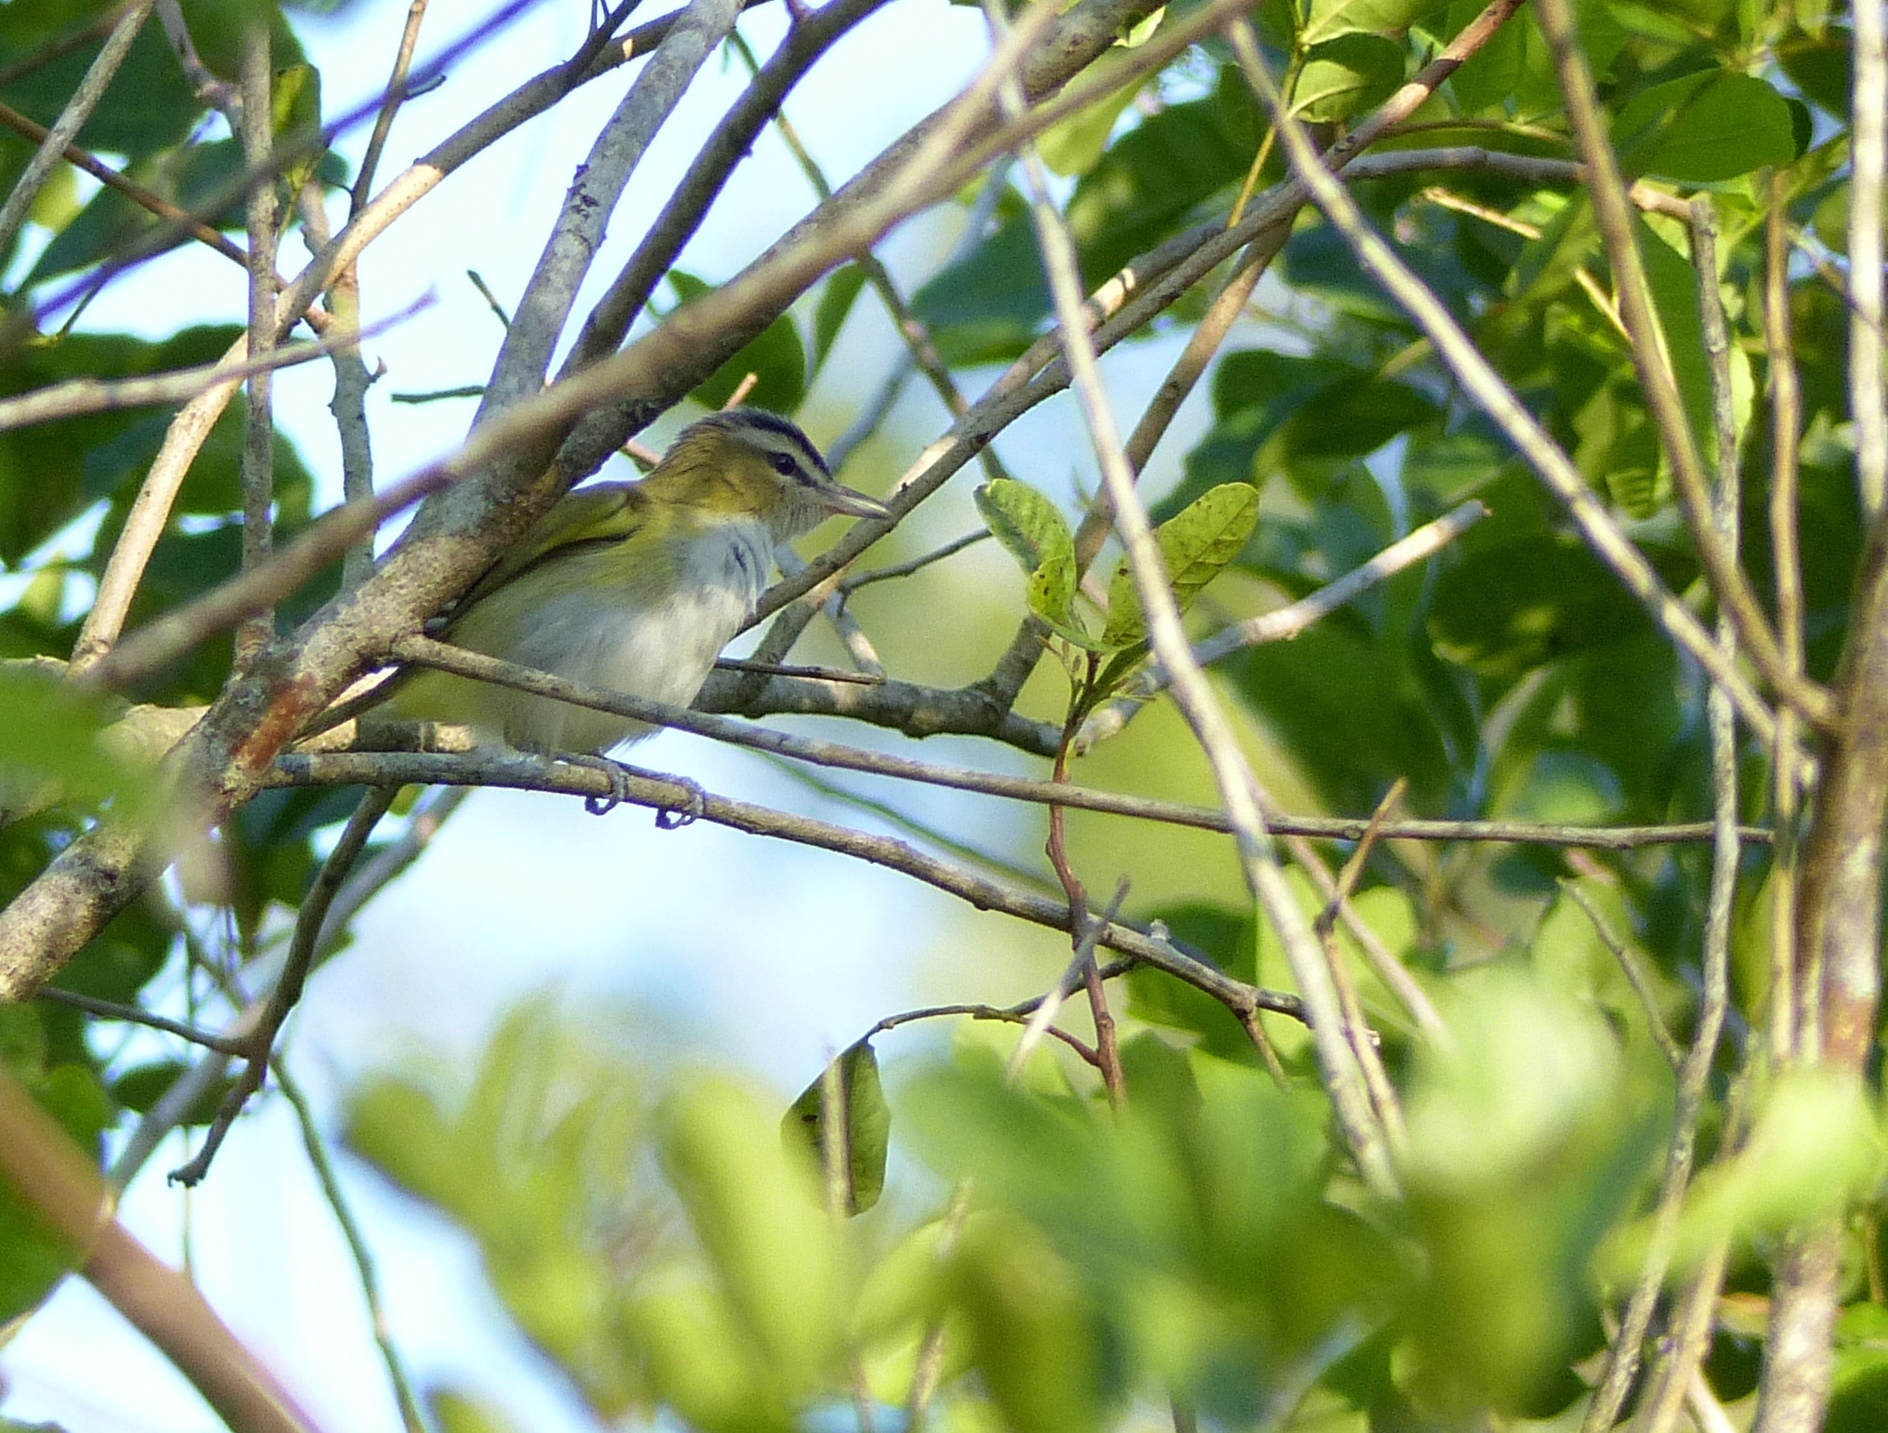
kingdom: Animalia
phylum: Chordata
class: Aves
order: Passeriformes
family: Vireonidae
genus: Vireo
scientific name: Vireo olivaceus
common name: Red-eyed vireo
